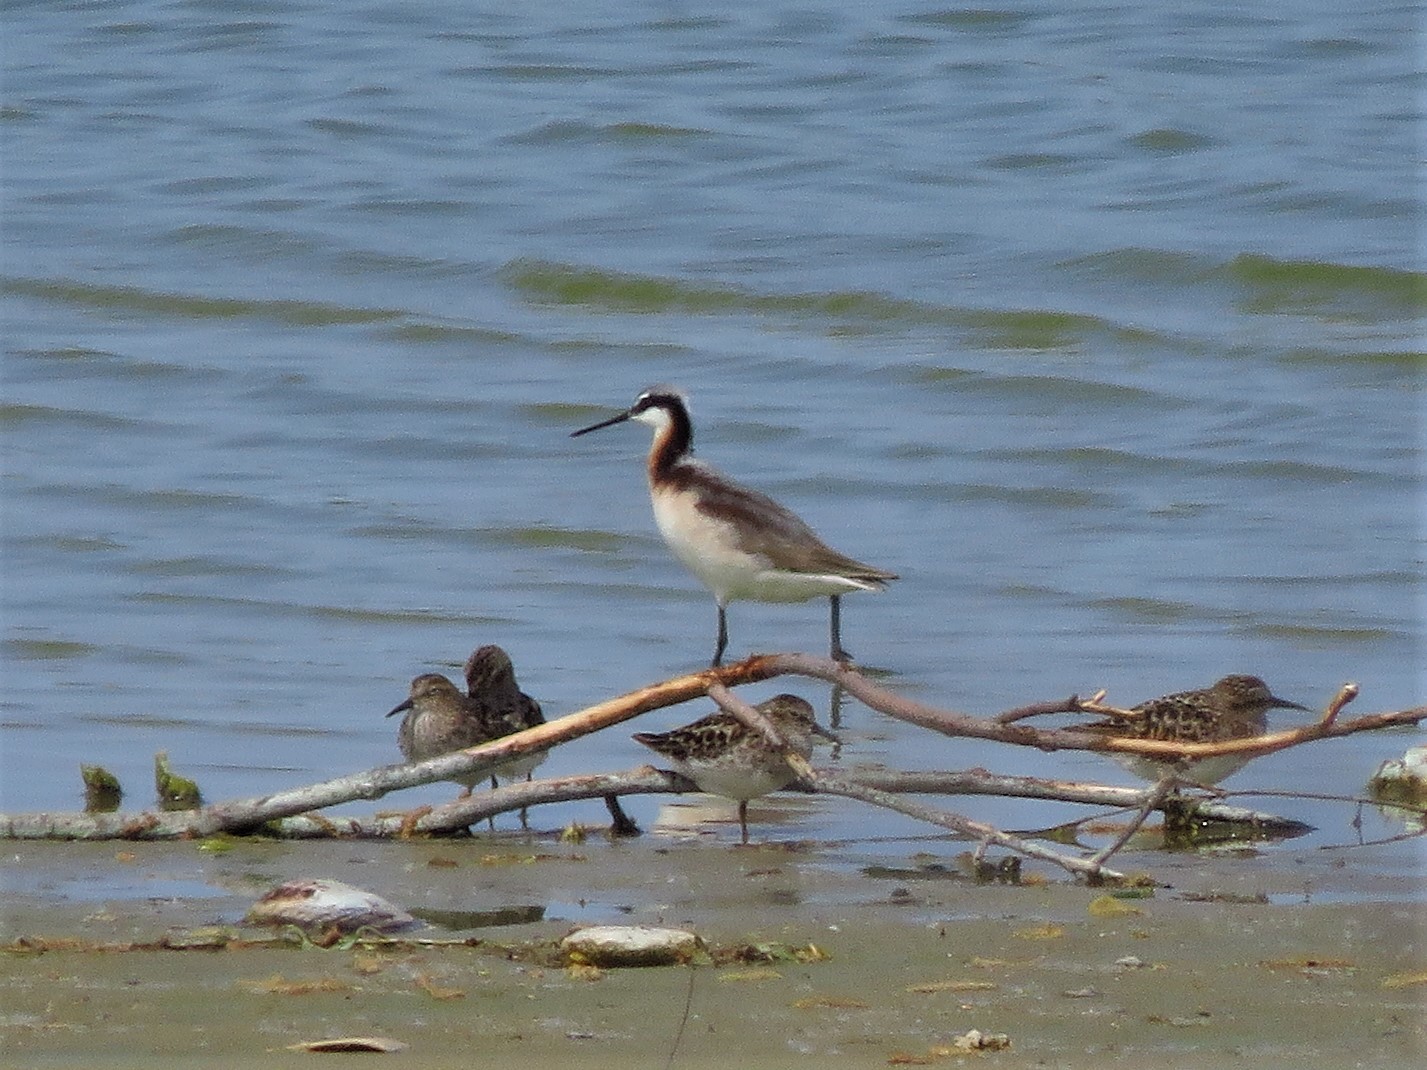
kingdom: Animalia
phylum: Chordata
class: Aves
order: Charadriiformes
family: Scolopacidae
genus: Phalaropus
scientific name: Phalaropus tricolor
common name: Wilson's phalarope
